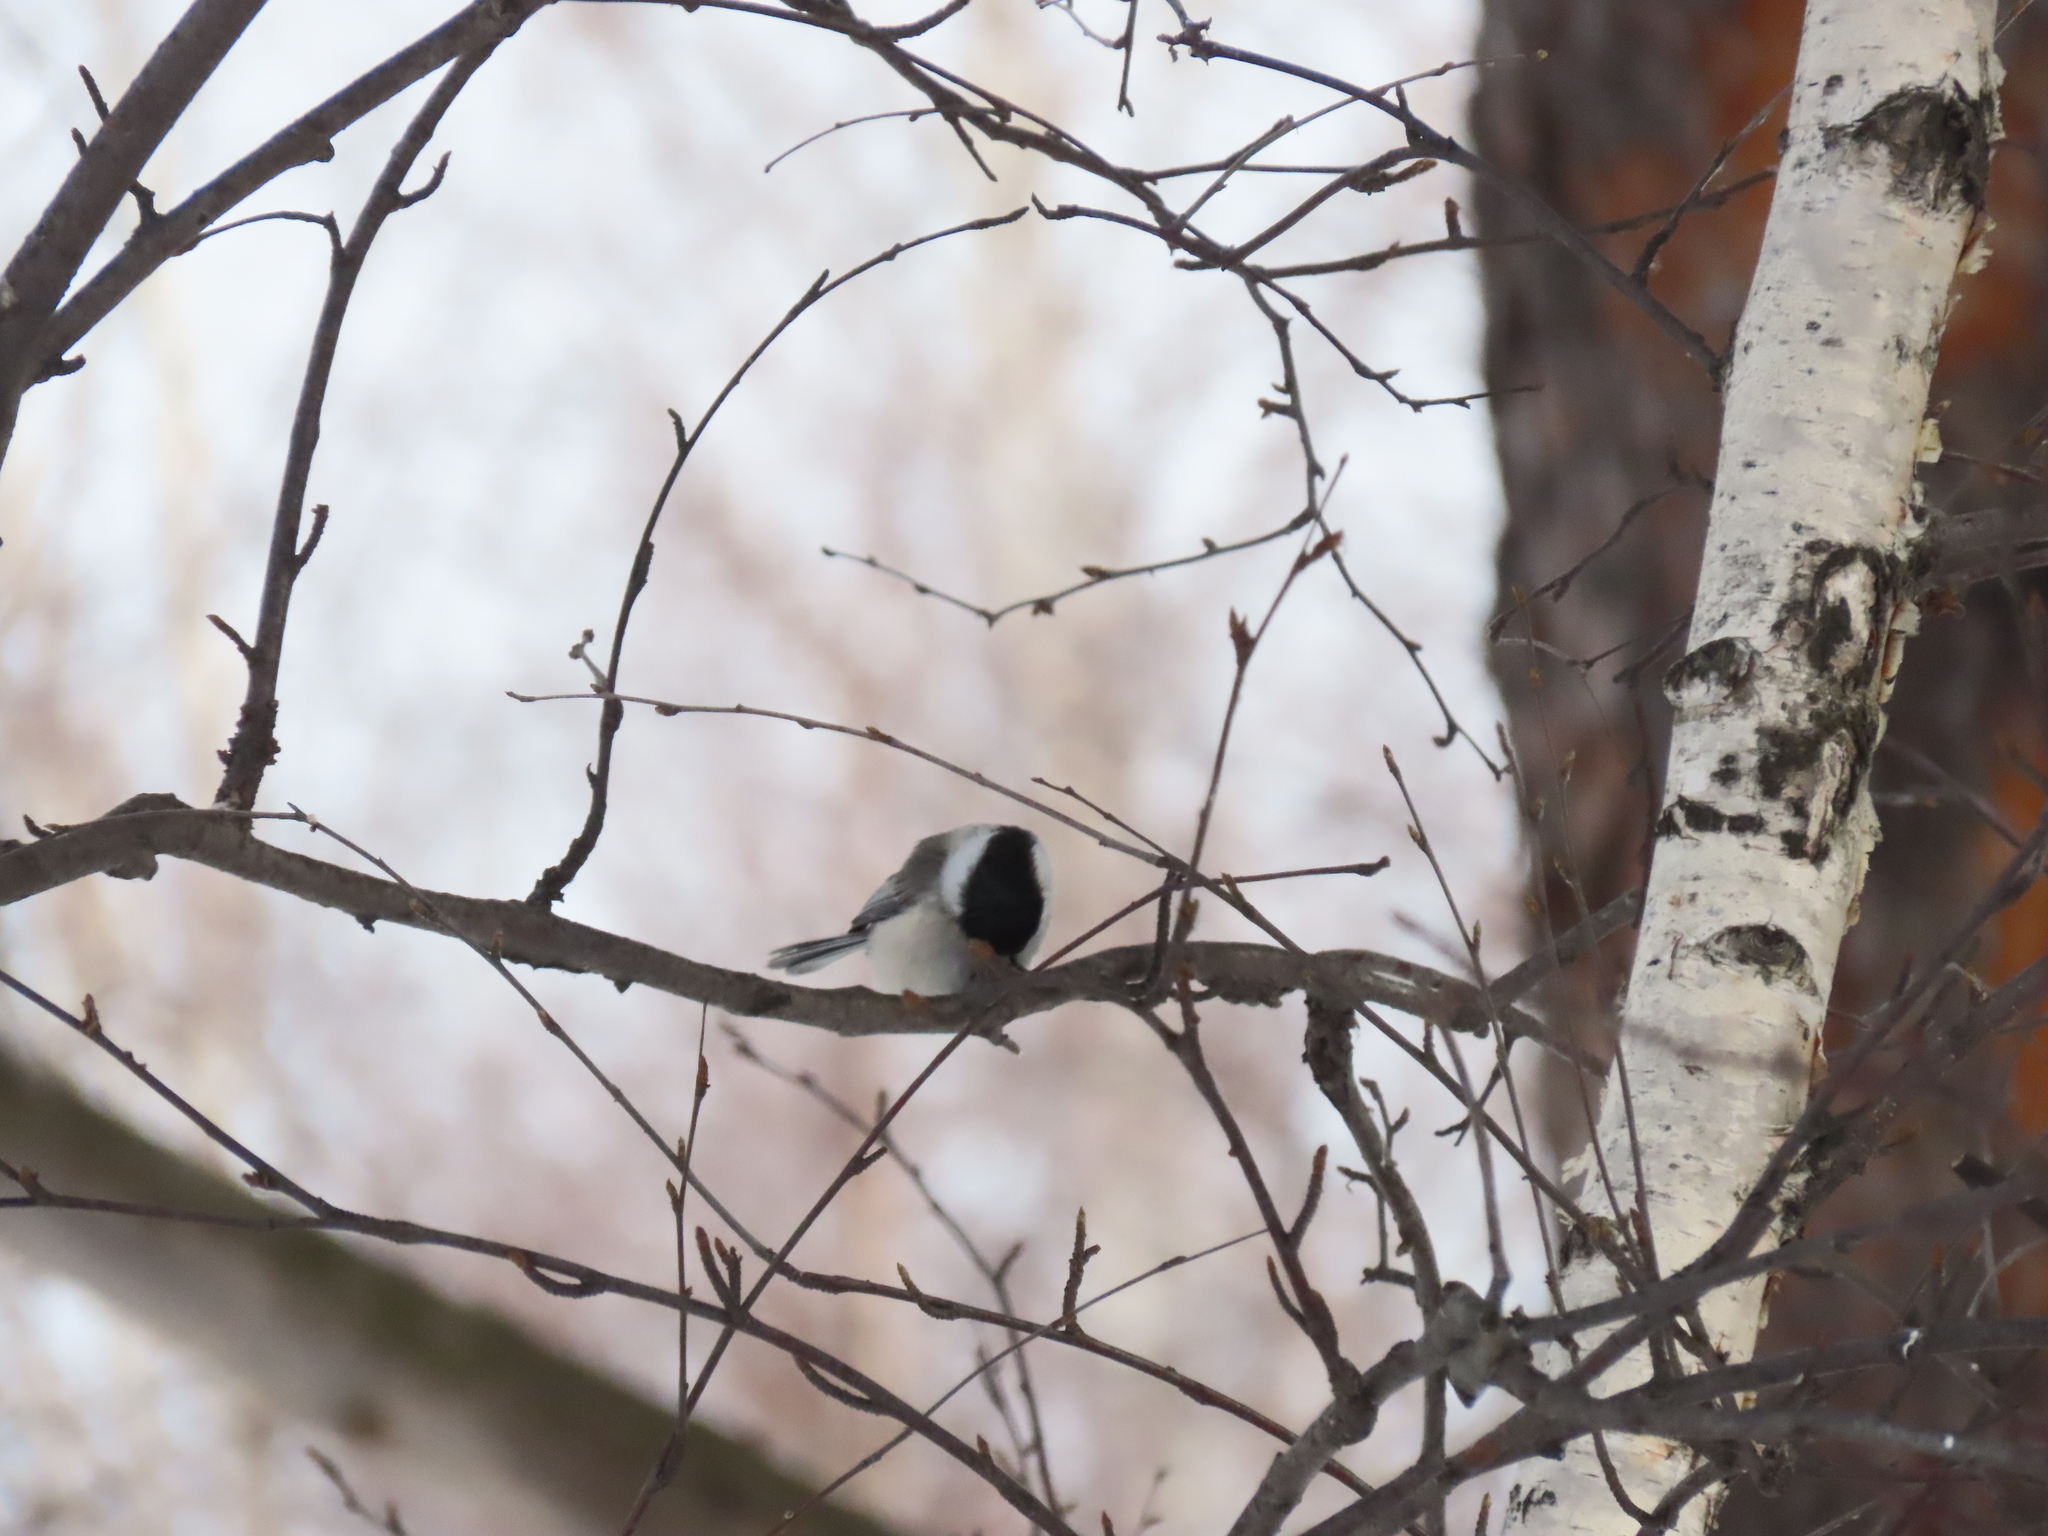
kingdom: Animalia
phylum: Chordata
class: Aves
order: Passeriformes
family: Paridae
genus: Poecile
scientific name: Poecile montanus
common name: Willow tit
